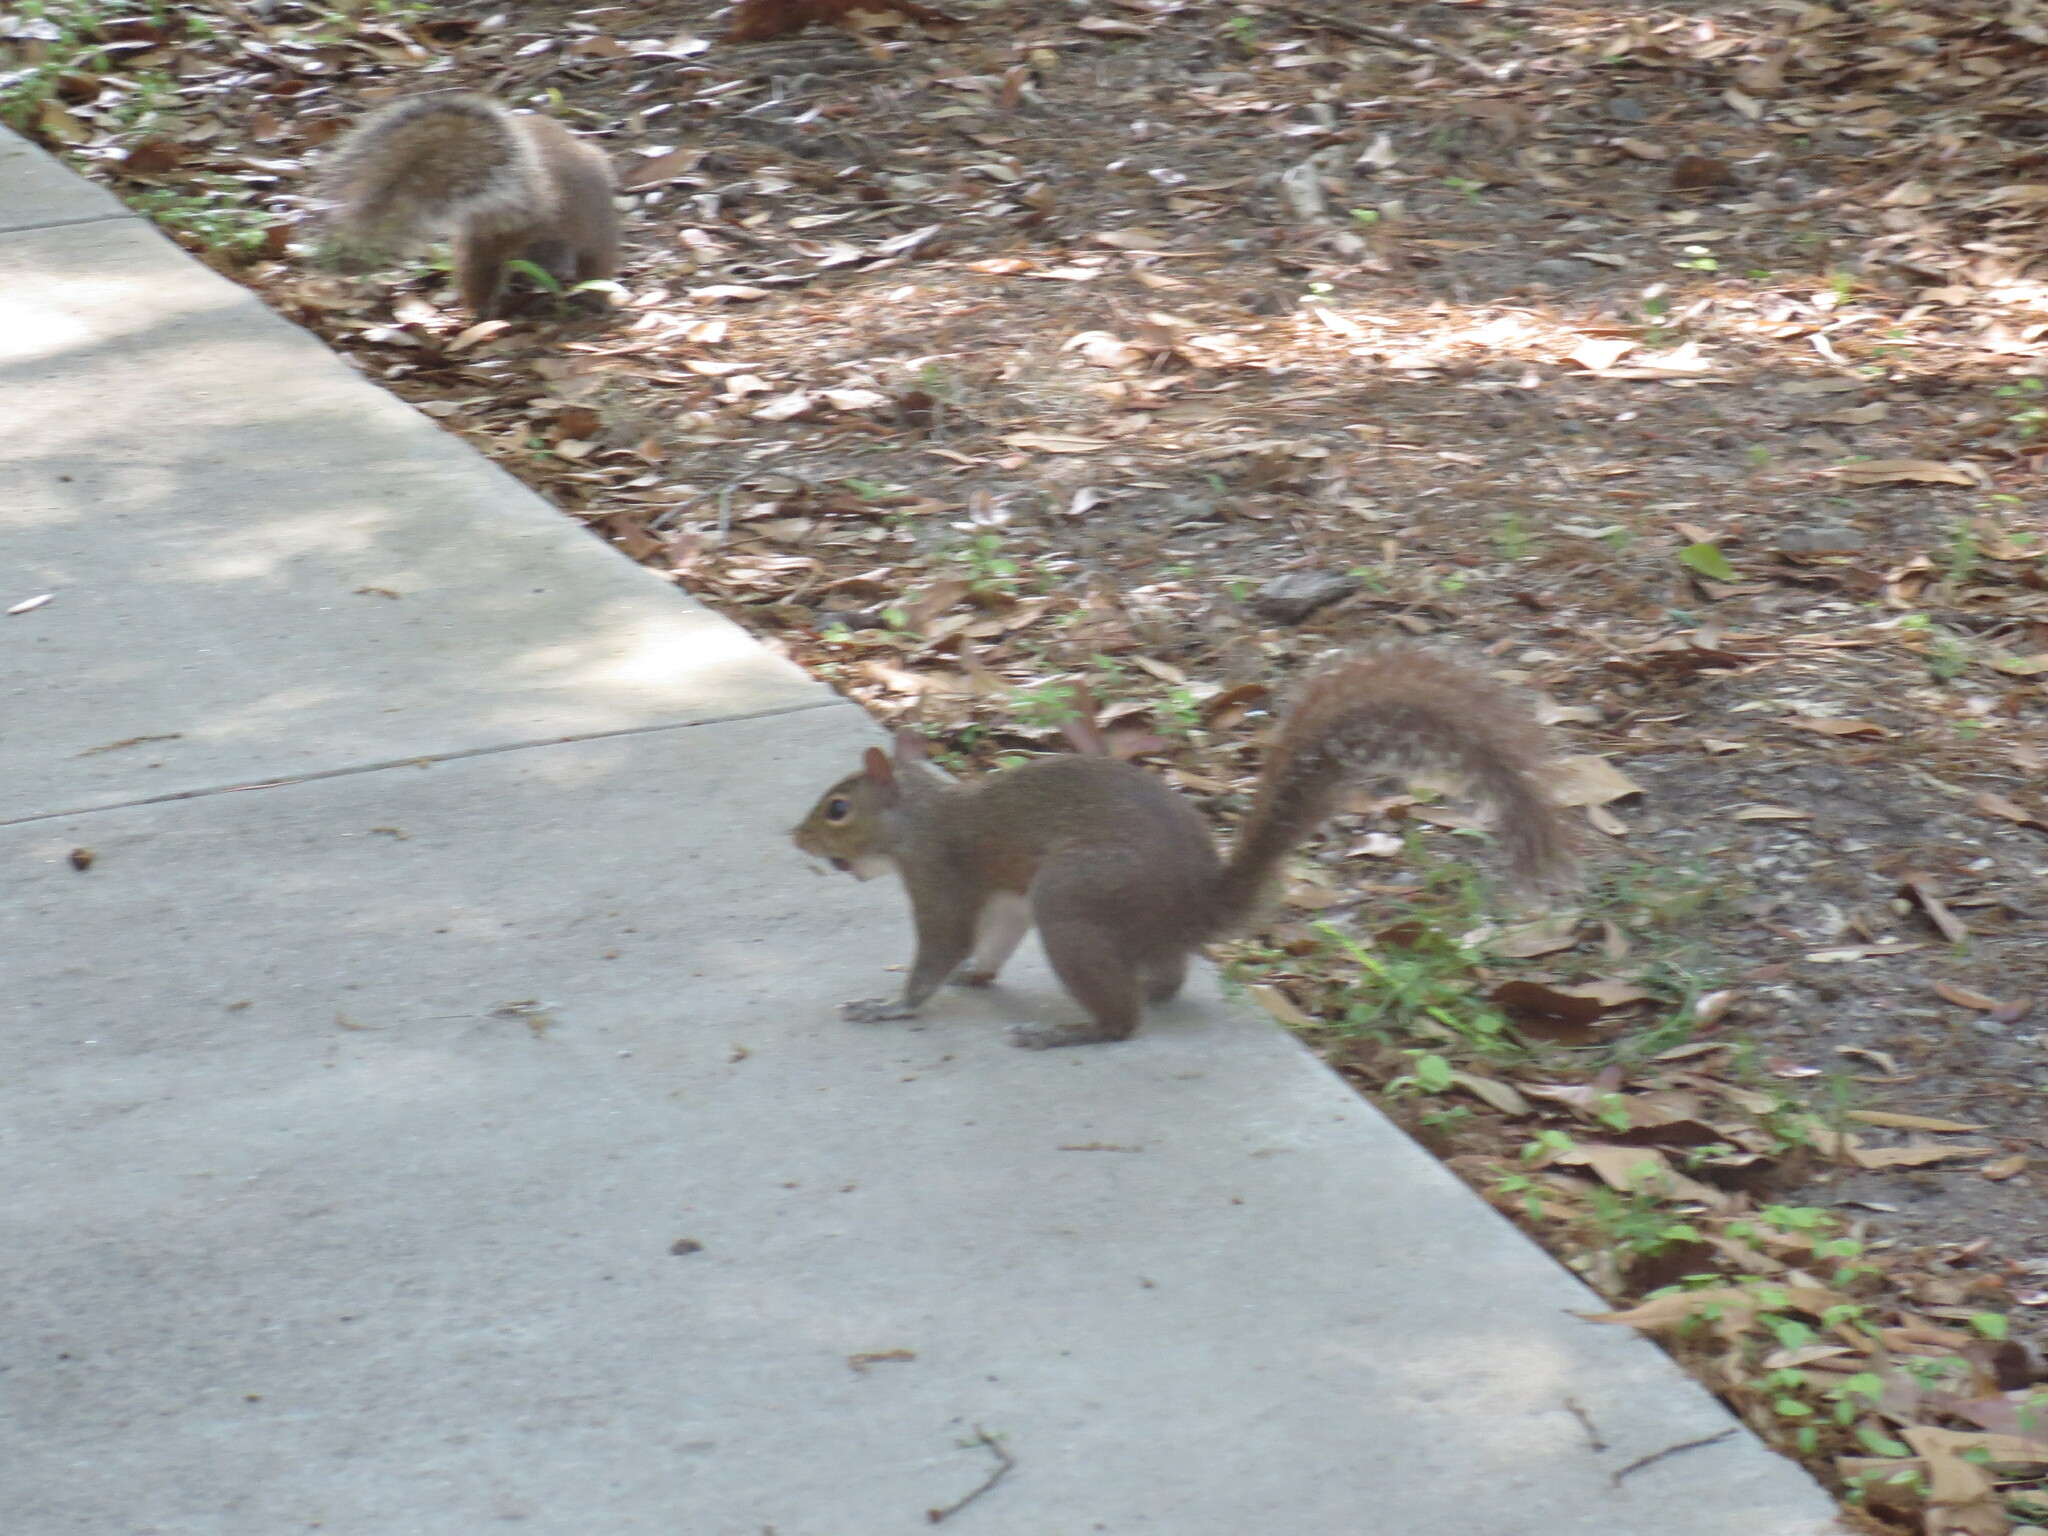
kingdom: Animalia
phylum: Chordata
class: Mammalia
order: Rodentia
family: Sciuridae
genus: Sciurus
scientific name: Sciurus carolinensis
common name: Eastern gray squirrel
